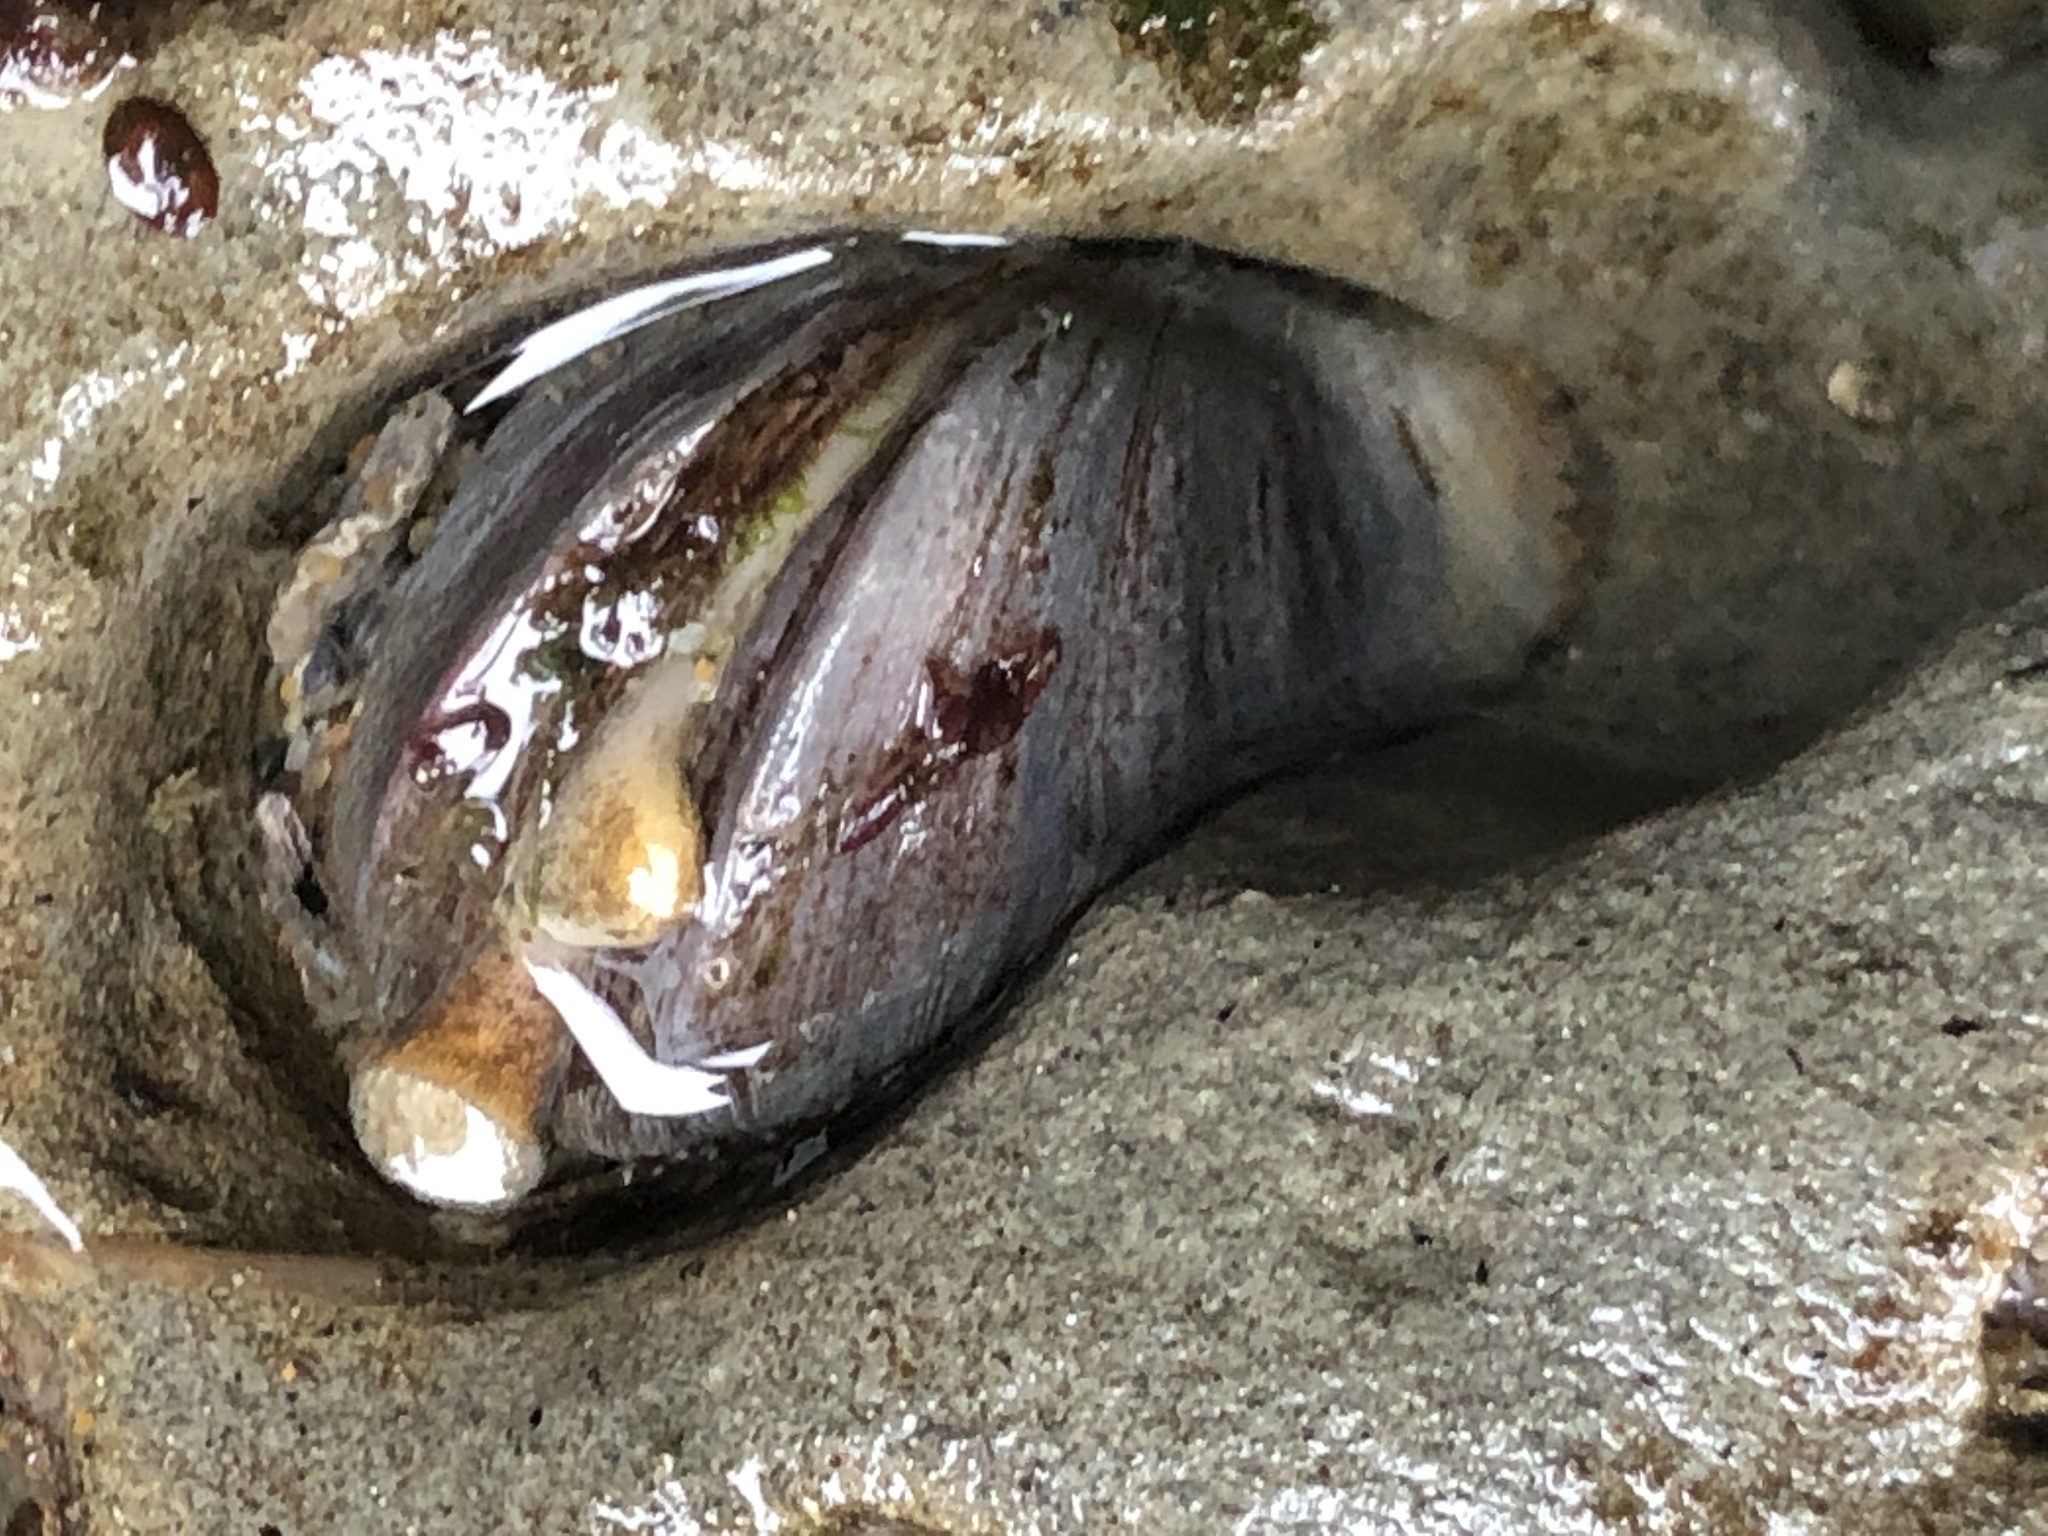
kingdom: Animalia
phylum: Mollusca
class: Bivalvia
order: Venerida
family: Veneridae
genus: Petricola
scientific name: Petricola carditoides
